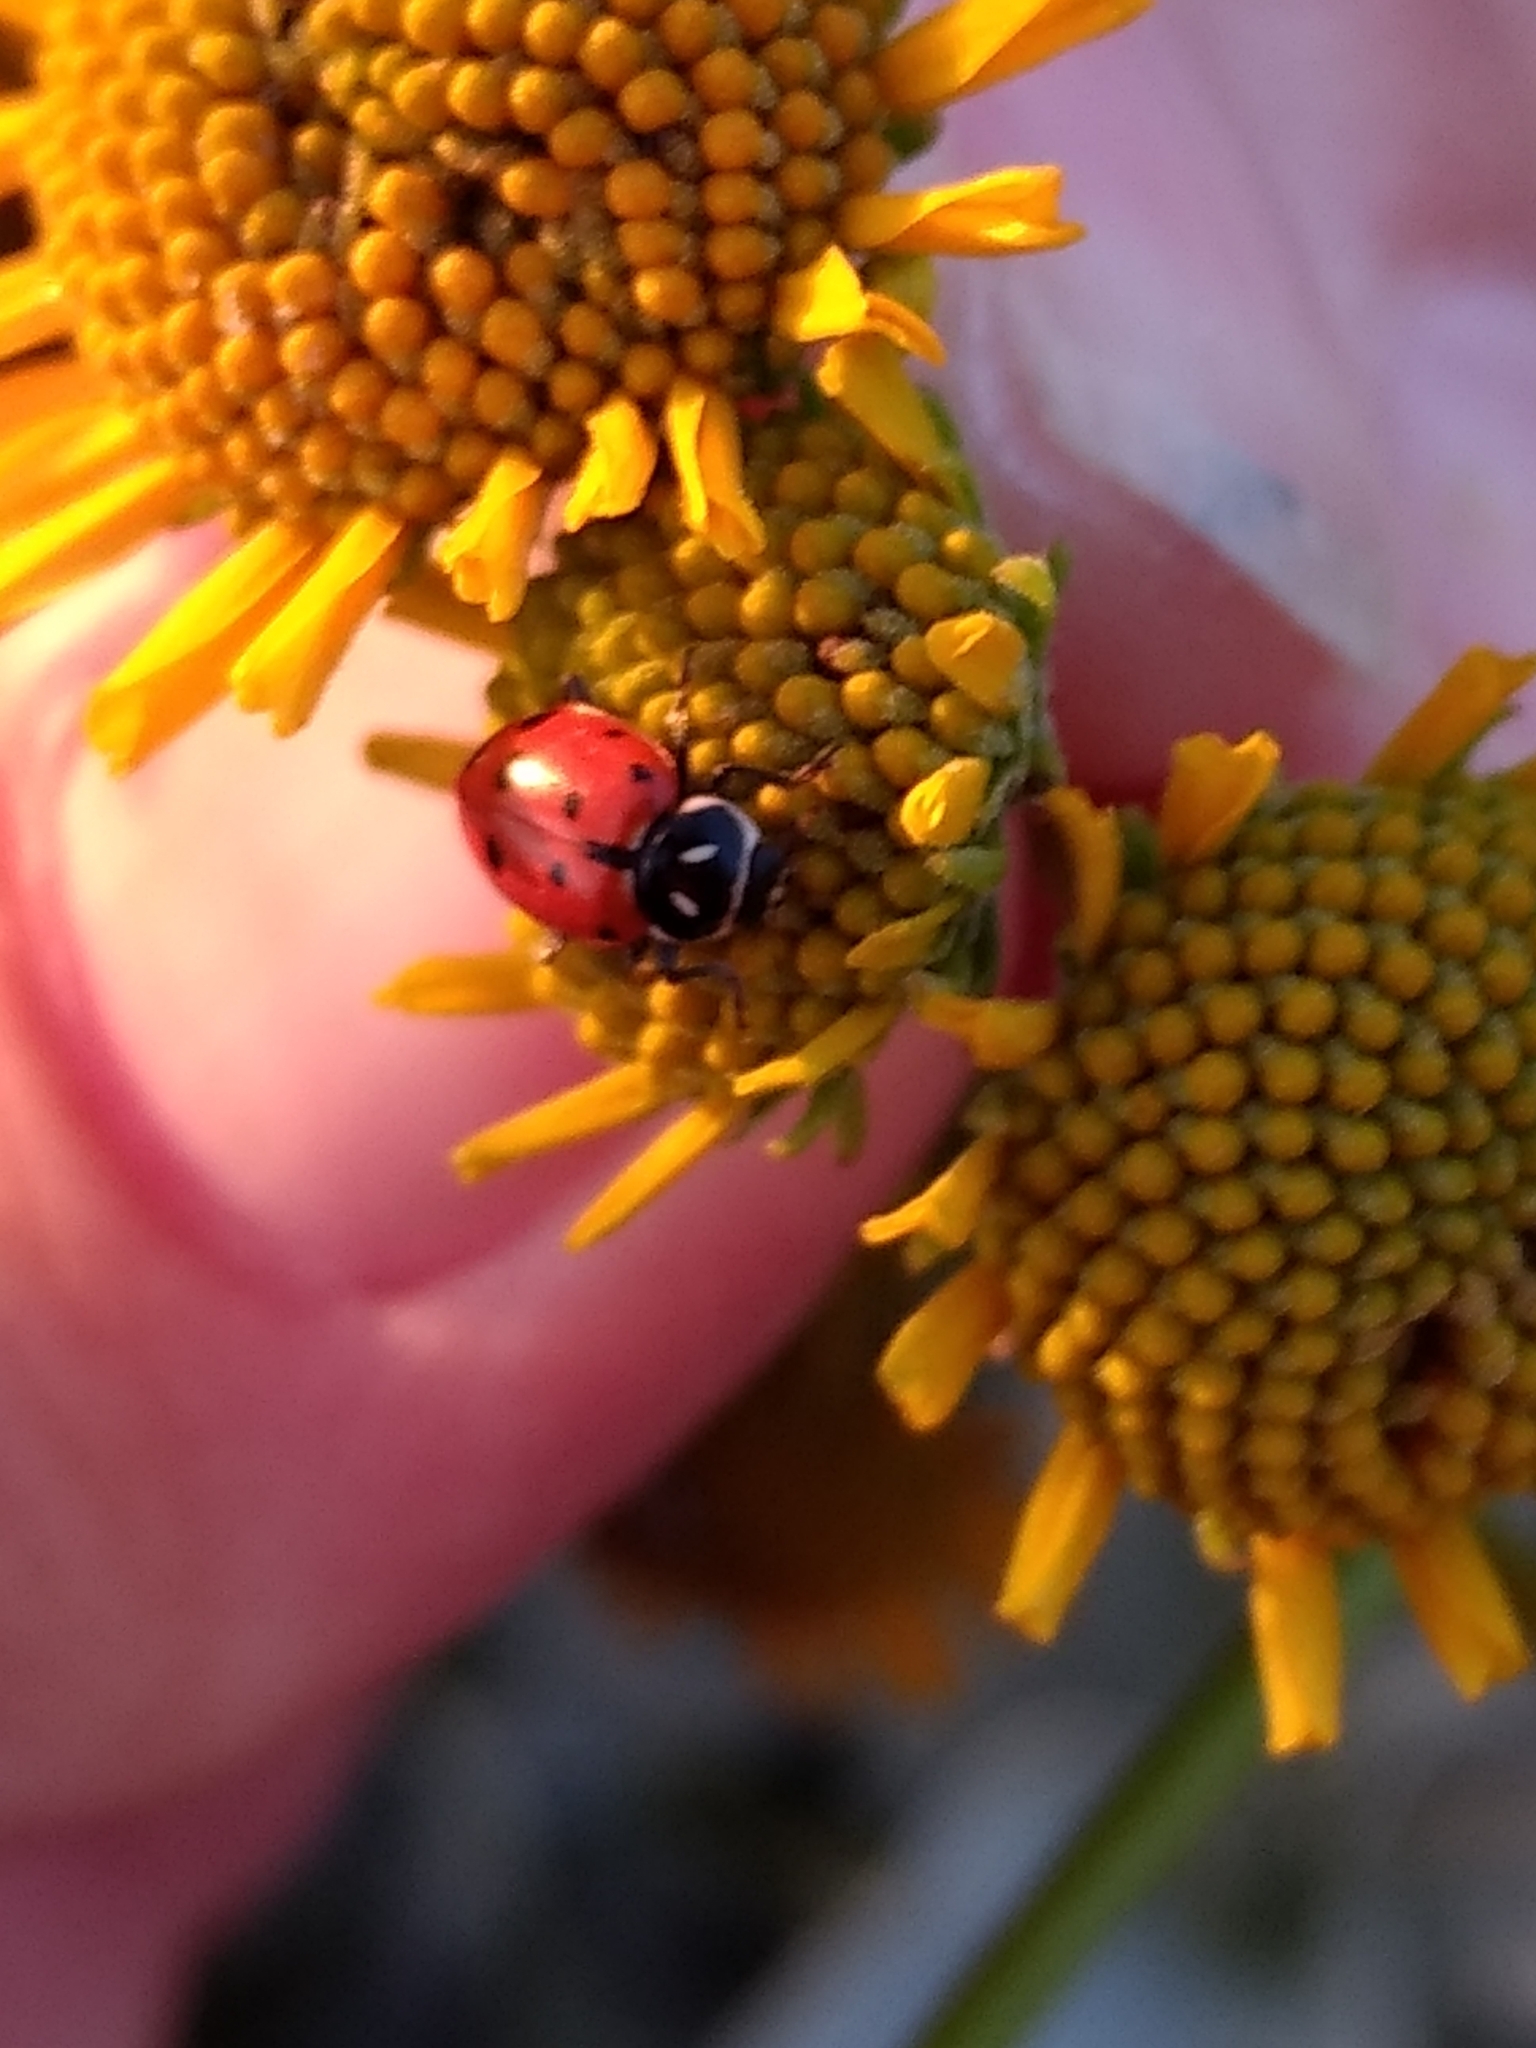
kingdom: Animalia
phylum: Arthropoda
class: Insecta
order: Coleoptera
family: Coccinellidae
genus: Hippodamia
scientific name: Hippodamia convergens
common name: Convergent lady beetle
